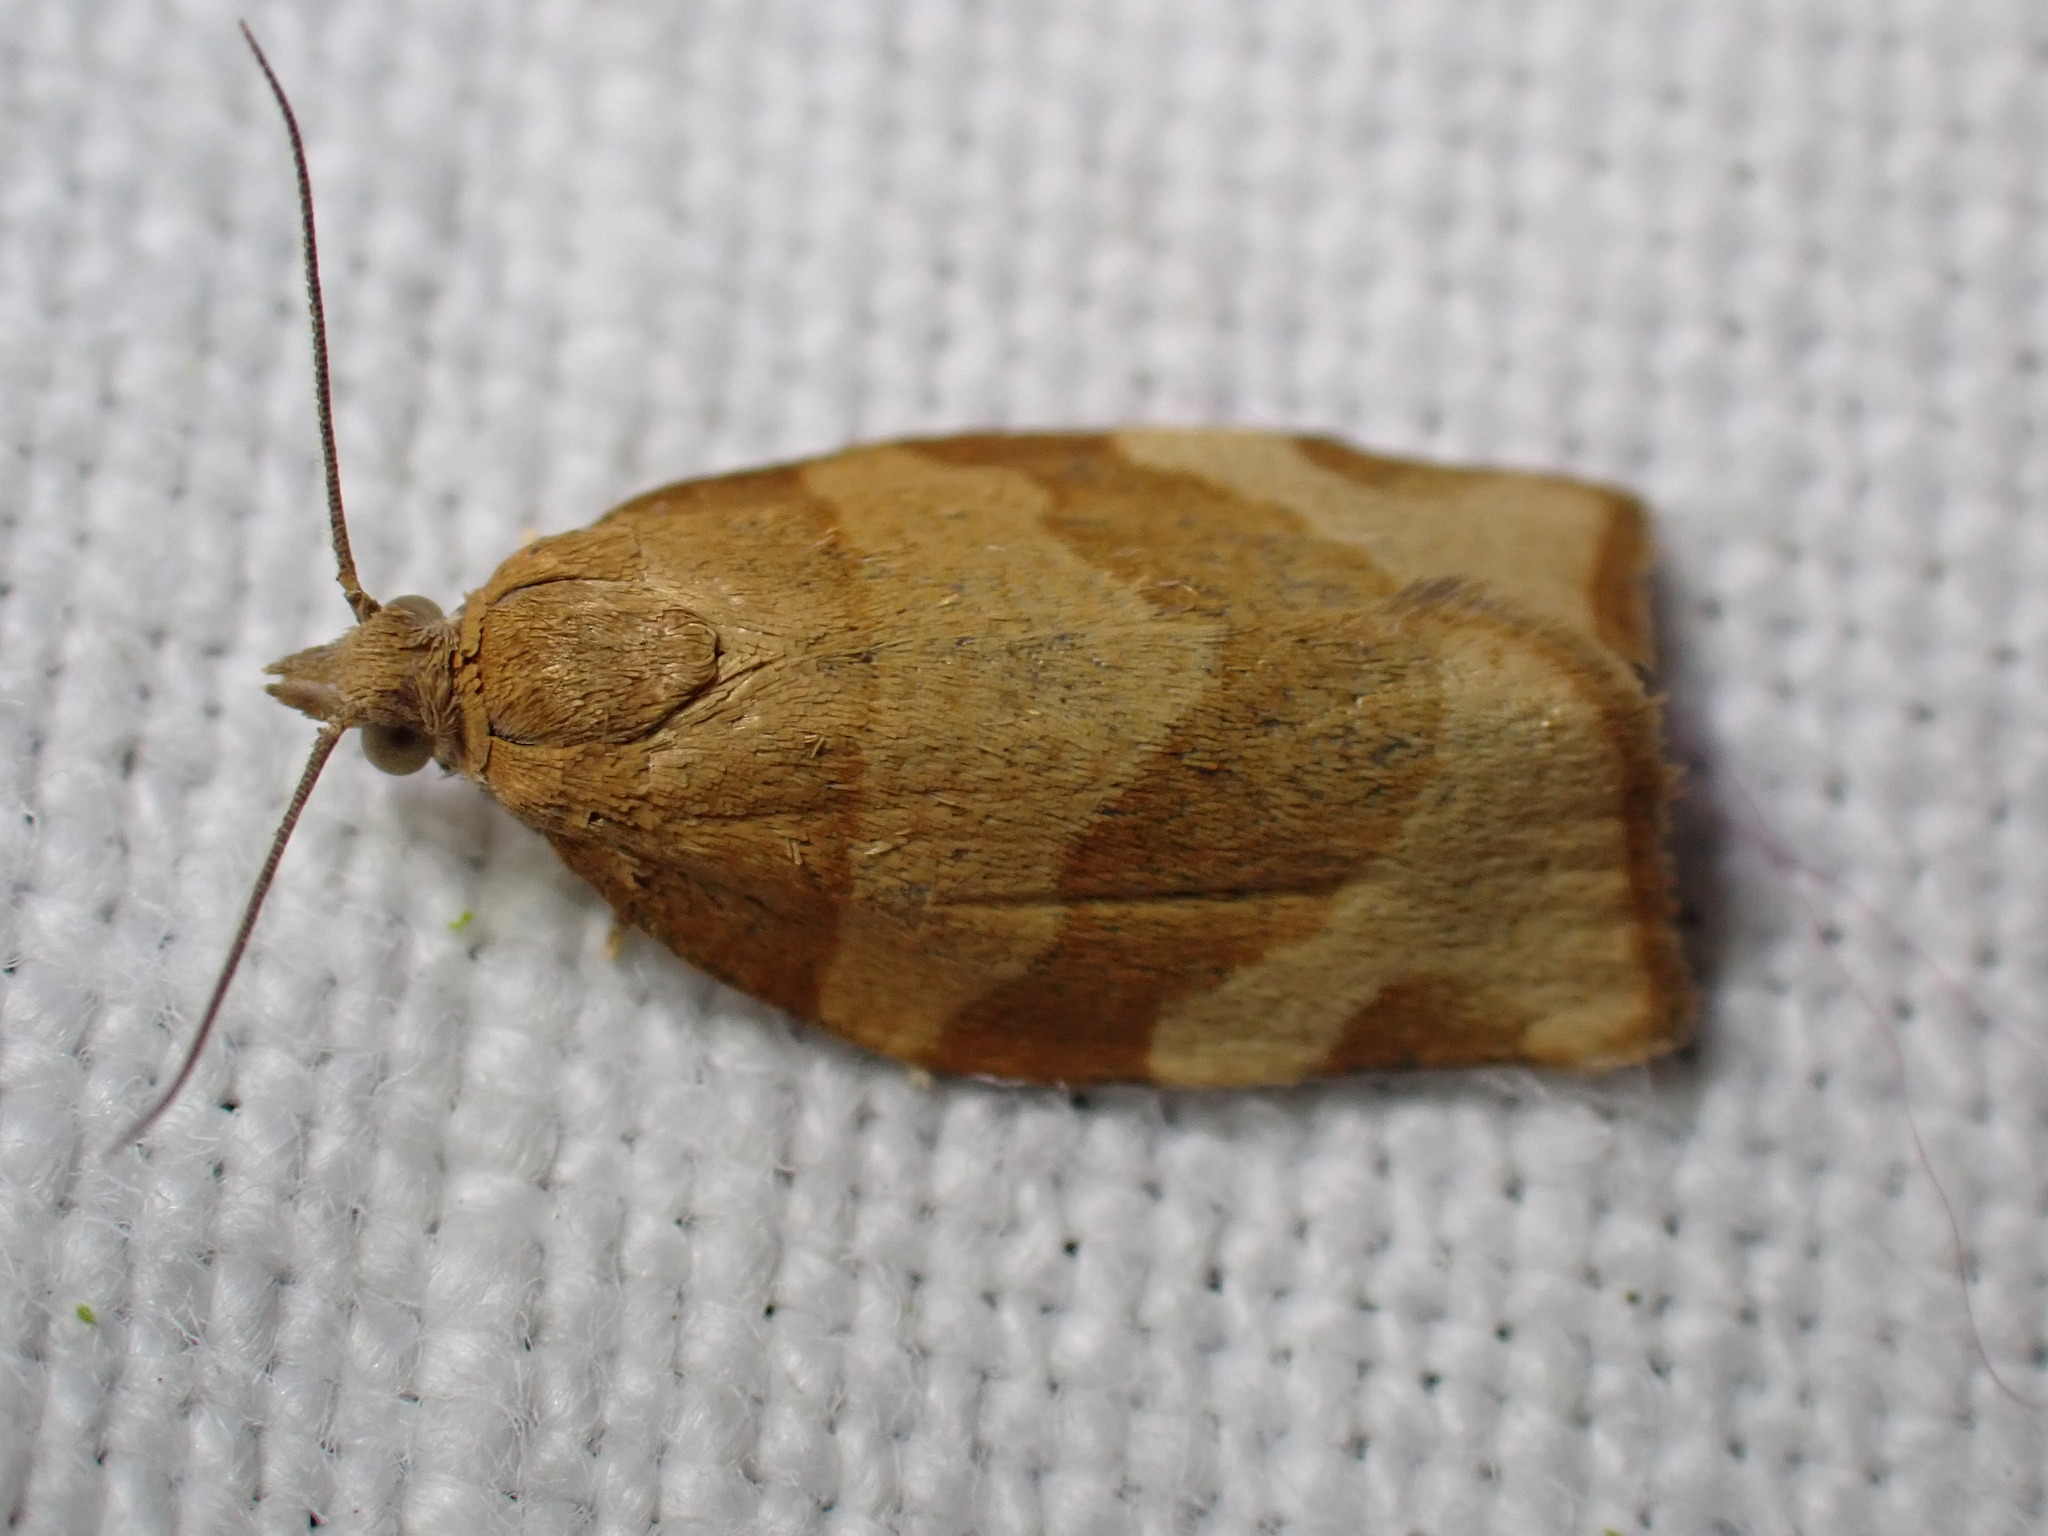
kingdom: Animalia
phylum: Arthropoda
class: Insecta
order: Lepidoptera
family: Tortricidae
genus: Pandemis
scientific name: Pandemis cerasana
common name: Barred fruit-tree tortrix
